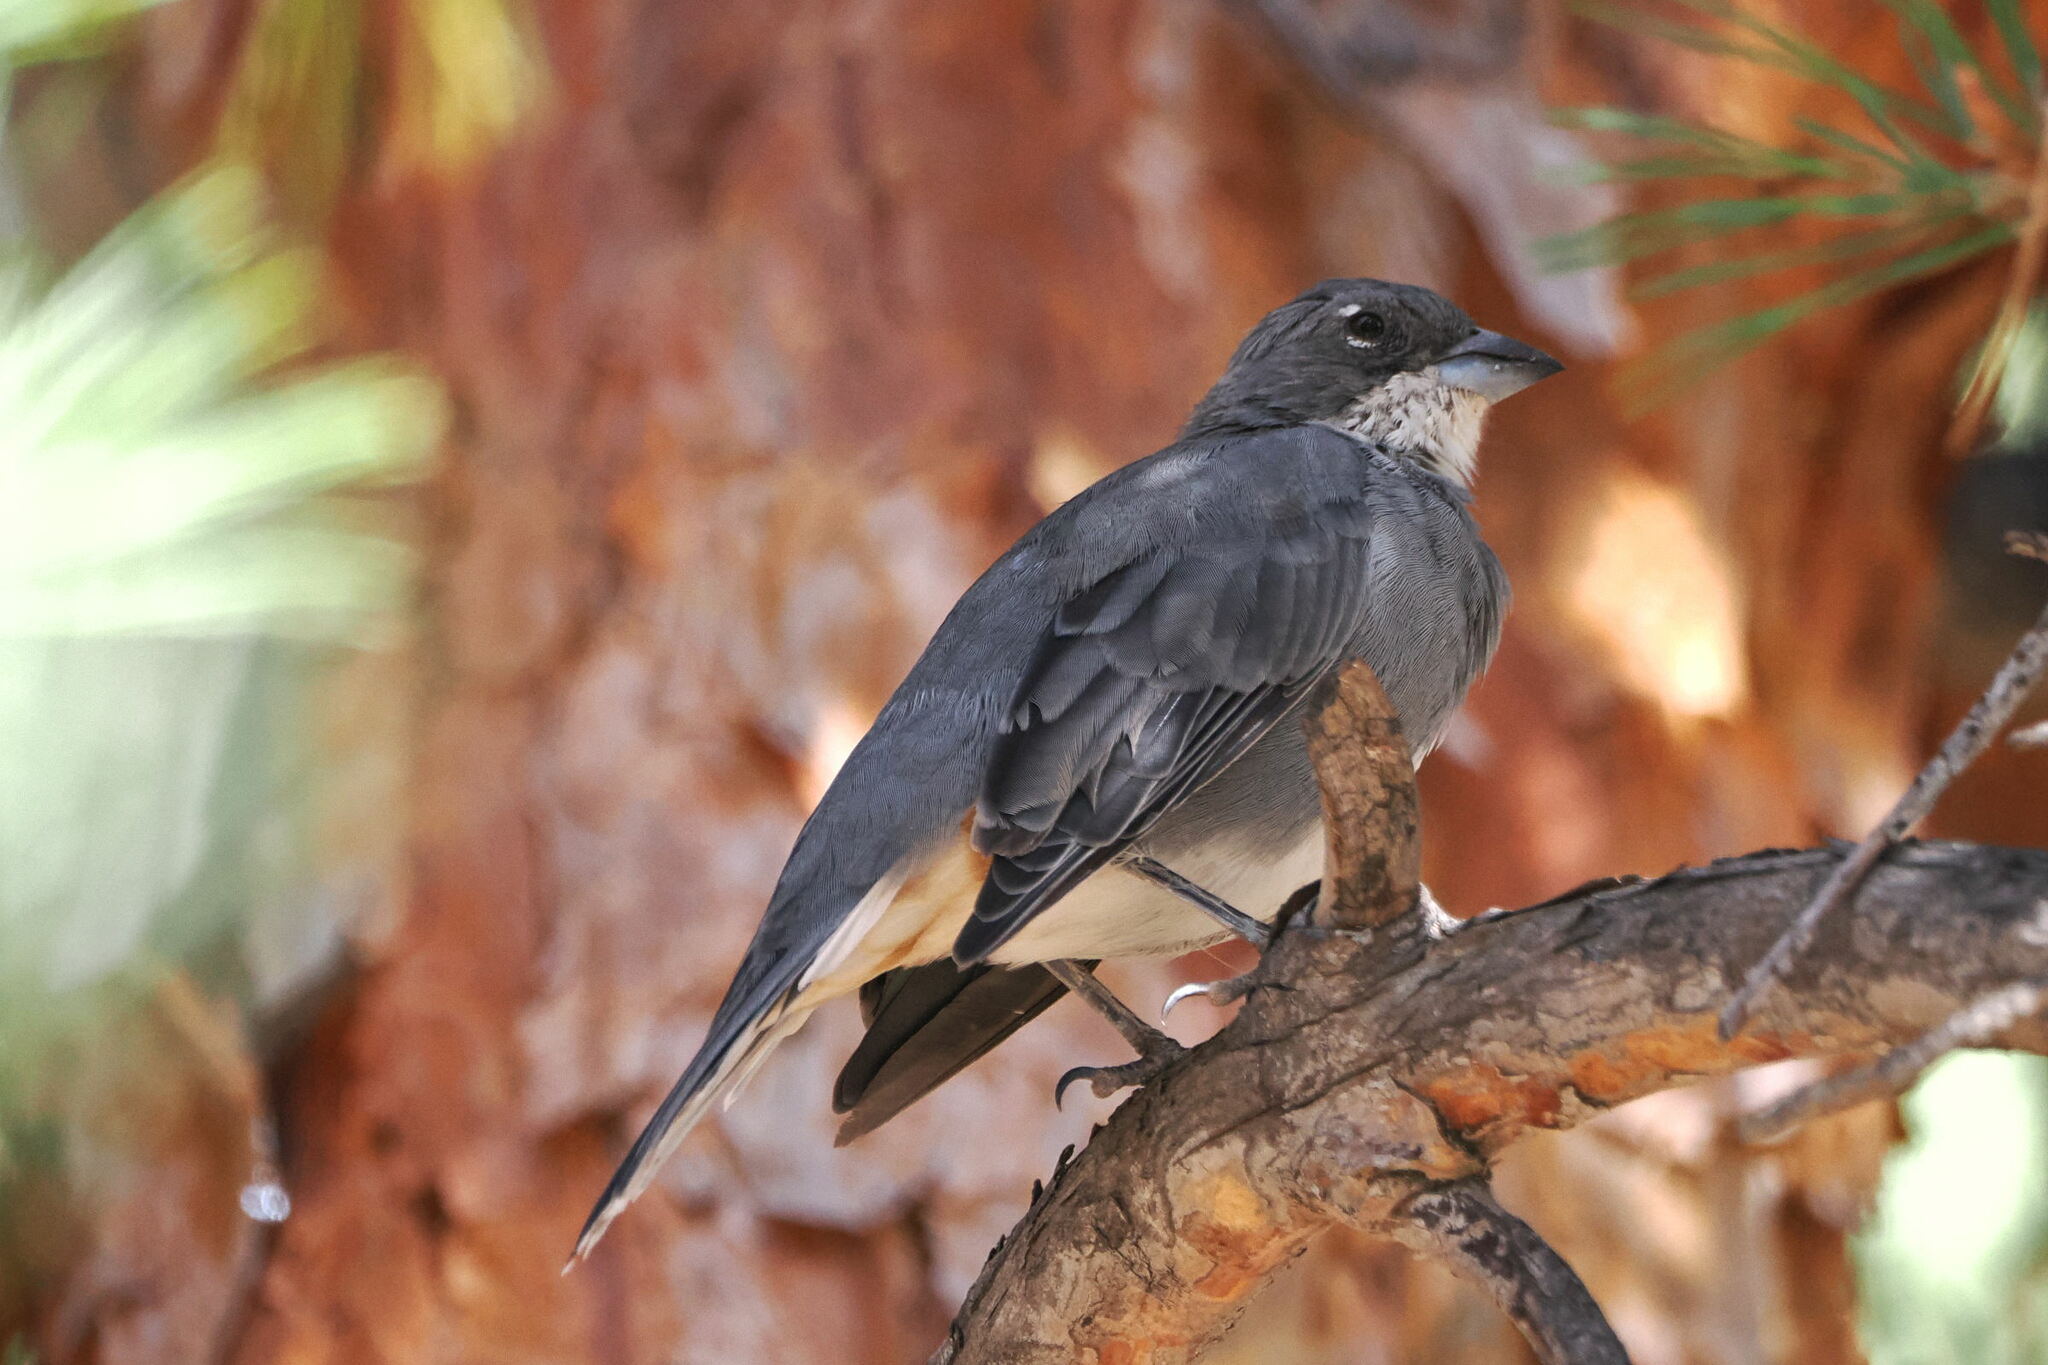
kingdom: Animalia
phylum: Chordata
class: Aves
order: Passeriformes
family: Thraupidae
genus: Diuca
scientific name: Diuca diuca
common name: Common diuca finch
